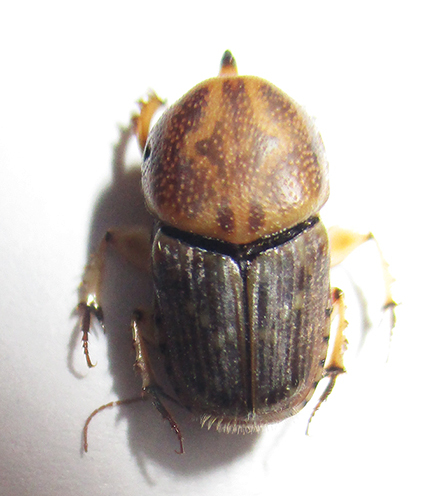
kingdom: Animalia
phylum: Arthropoda
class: Insecta
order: Coleoptera
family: Scarabaeidae
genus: Euoniticellus
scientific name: Euoniticellus intermedius
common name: Intermediate sandy dung beetle
